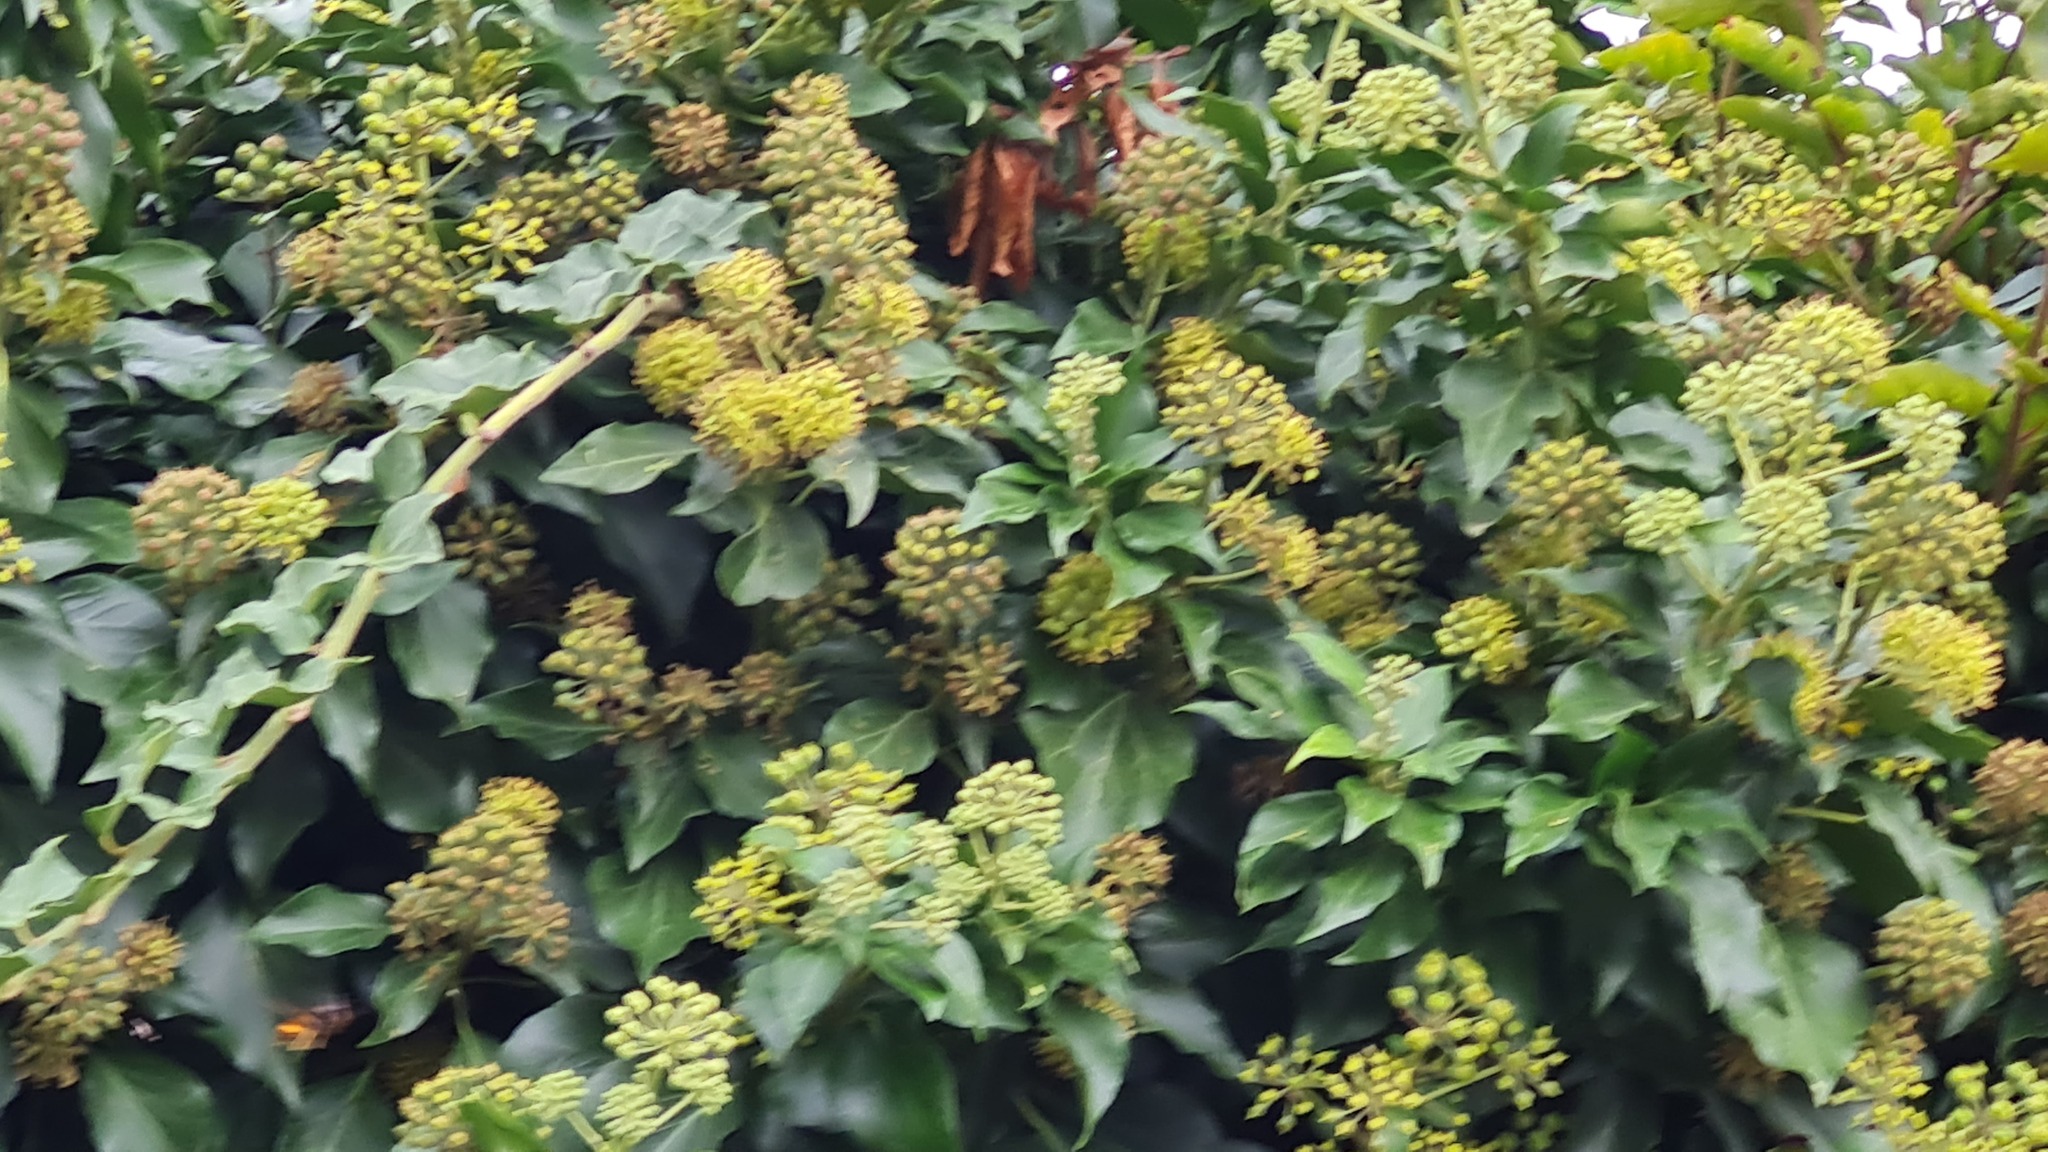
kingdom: Animalia
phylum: Arthropoda
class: Insecta
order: Hymenoptera
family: Vespidae
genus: Vespa
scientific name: Vespa velutina
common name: Asian hornet
